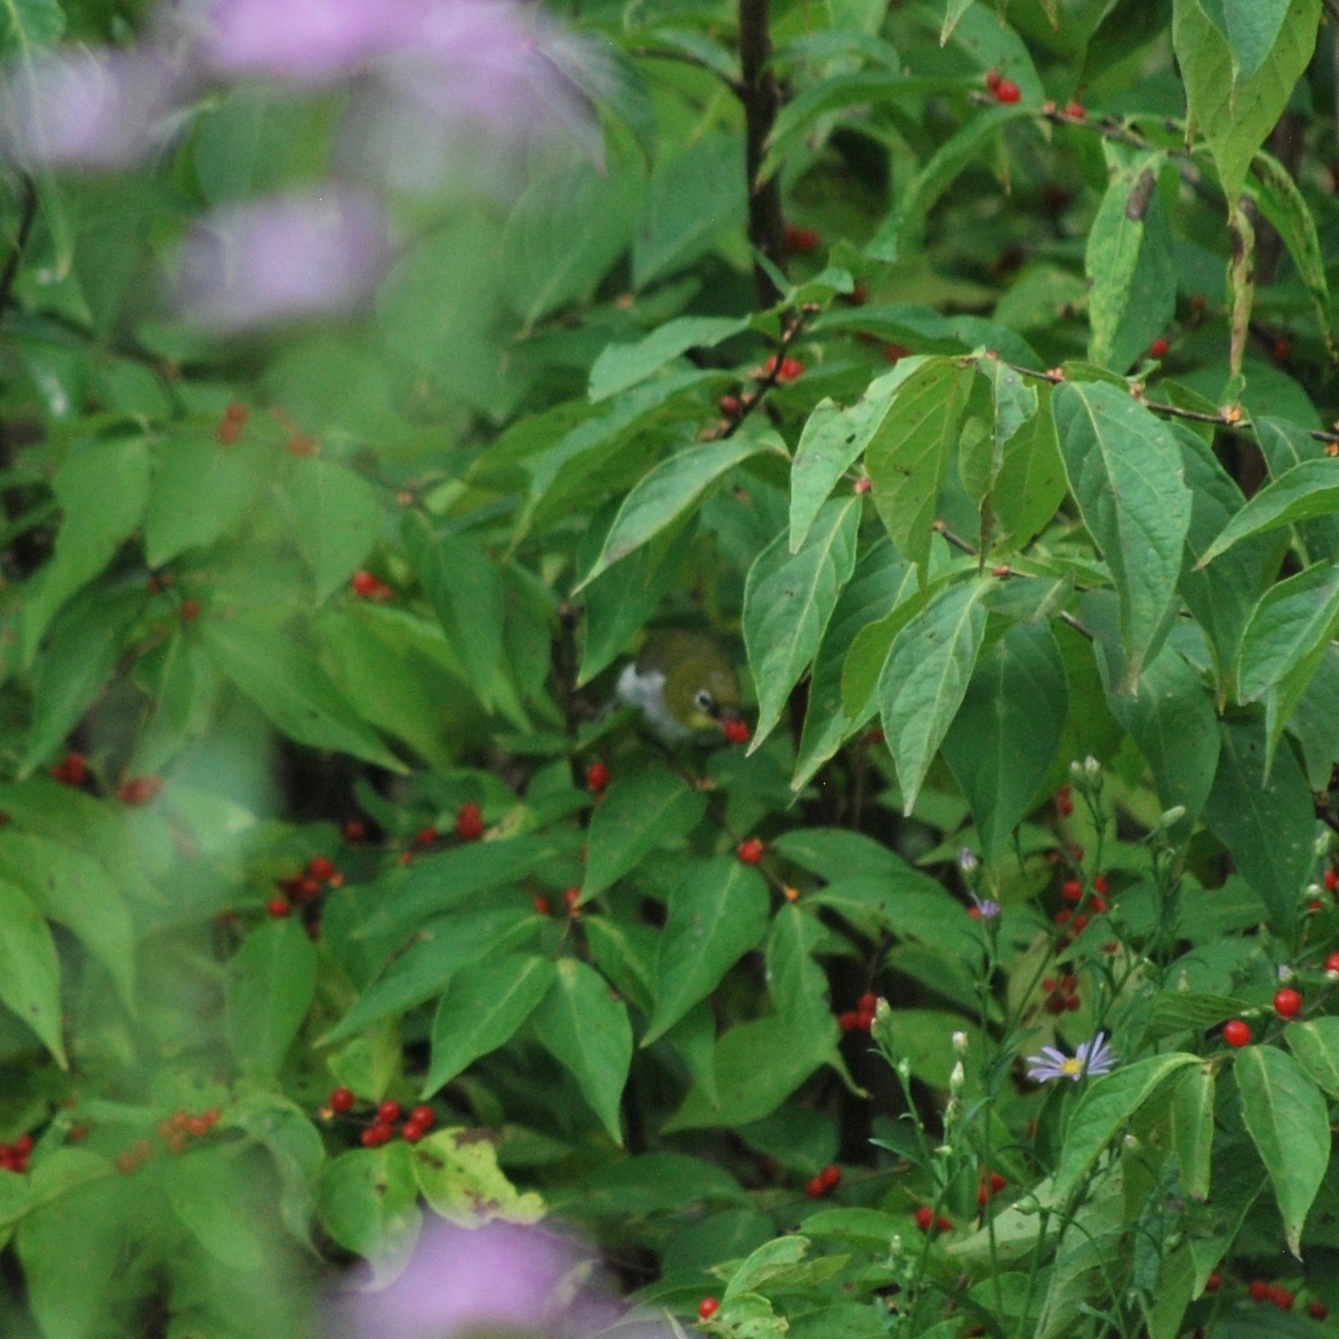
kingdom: Animalia
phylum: Chordata
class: Aves
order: Passeriformes
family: Zosteropidae
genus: Zosterops
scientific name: Zosterops erythropleurus
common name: Chestnut-flanked white-eye
